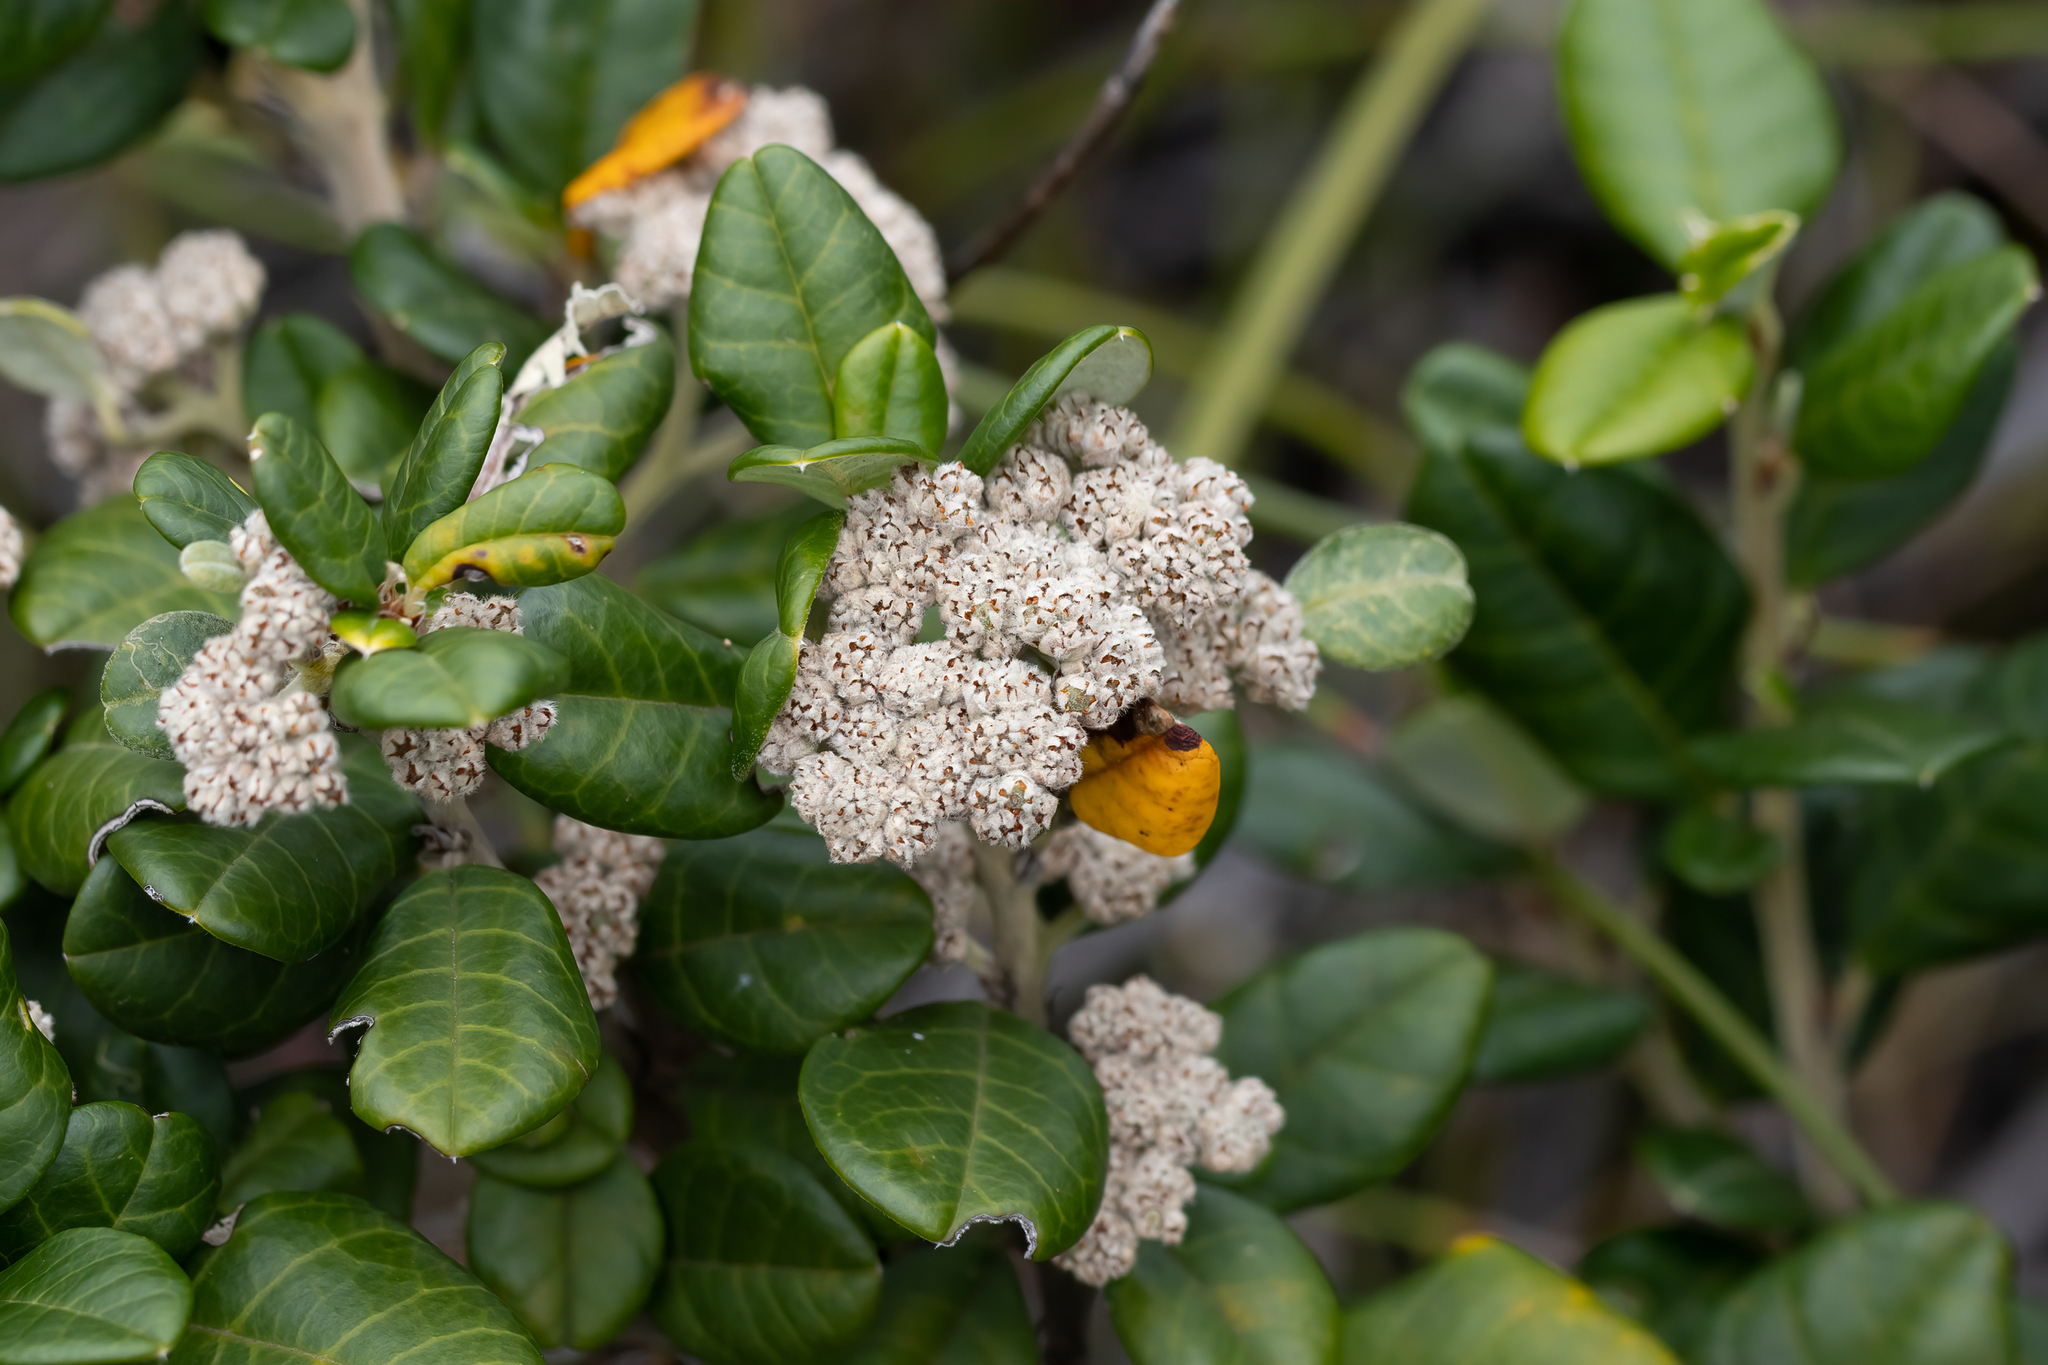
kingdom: Plantae
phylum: Tracheophyta
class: Magnoliopsida
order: Rosales
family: Rhamnaceae
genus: Spyridium
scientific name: Spyridium globulosum
